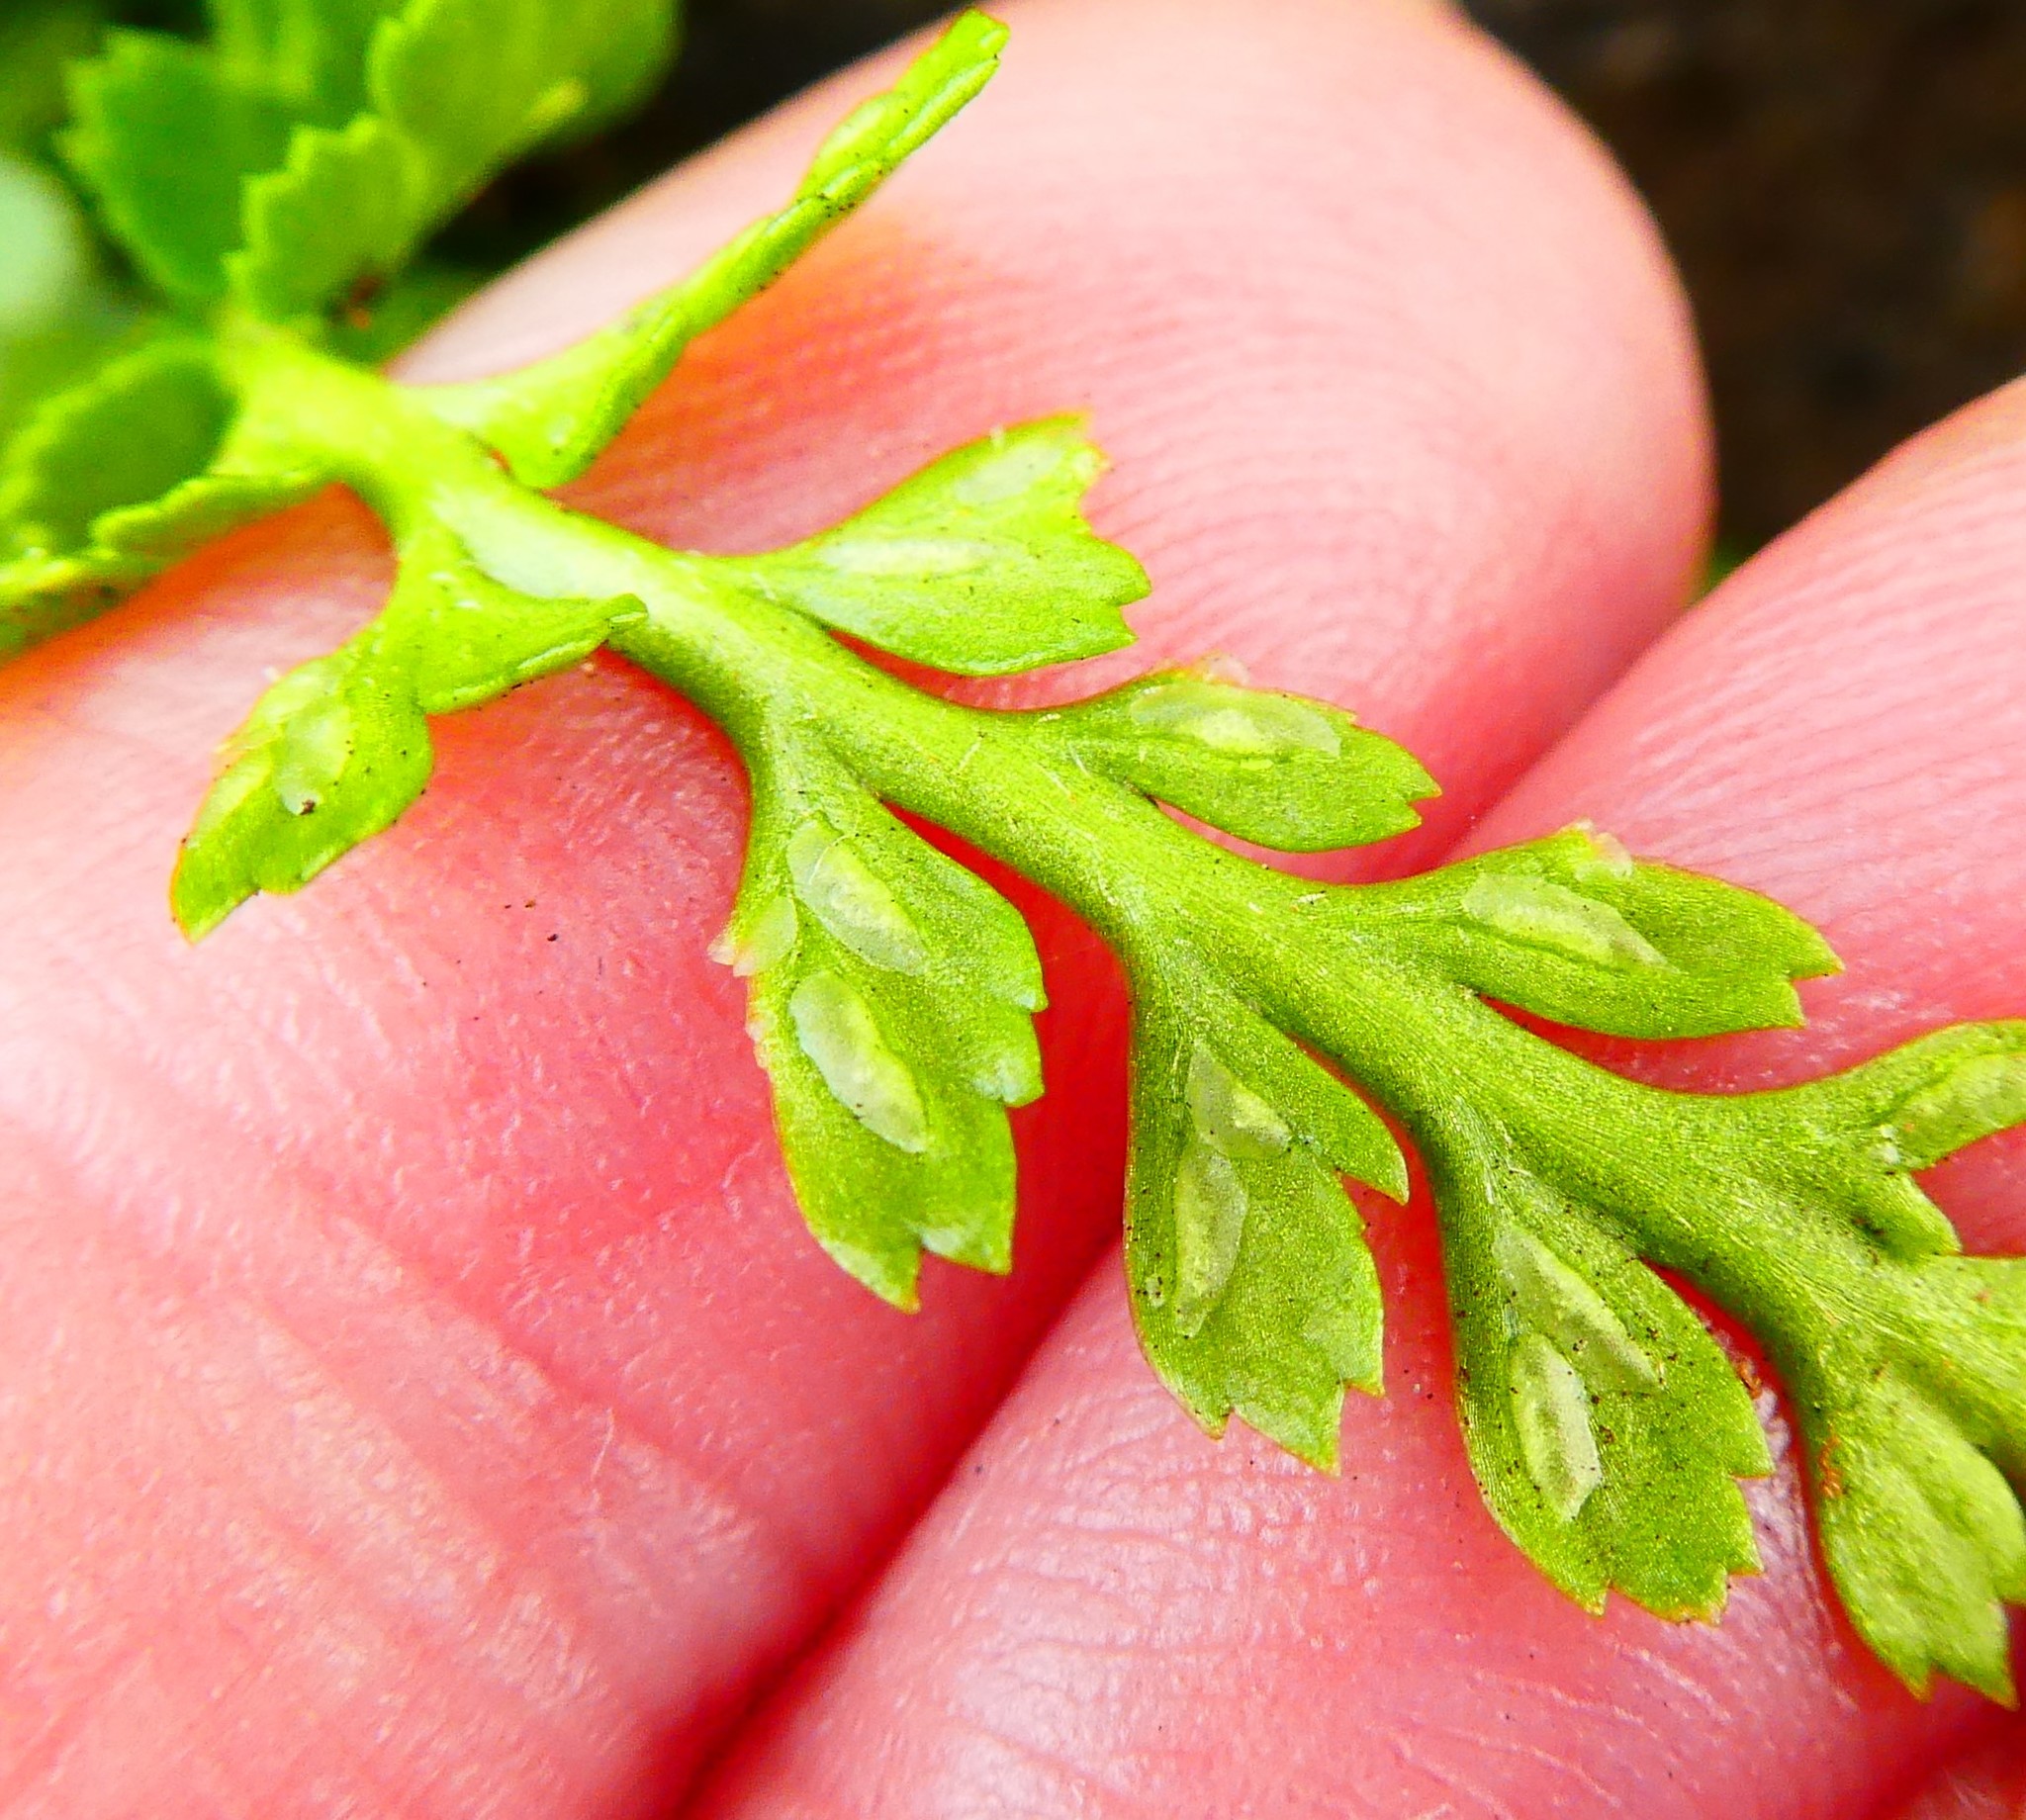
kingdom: Plantae
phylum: Tracheophyta
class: Polypodiopsida
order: Polypodiales
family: Aspleniaceae
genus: Asplenium
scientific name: Asplenium adiantum-nigrum
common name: Black spleenwort
